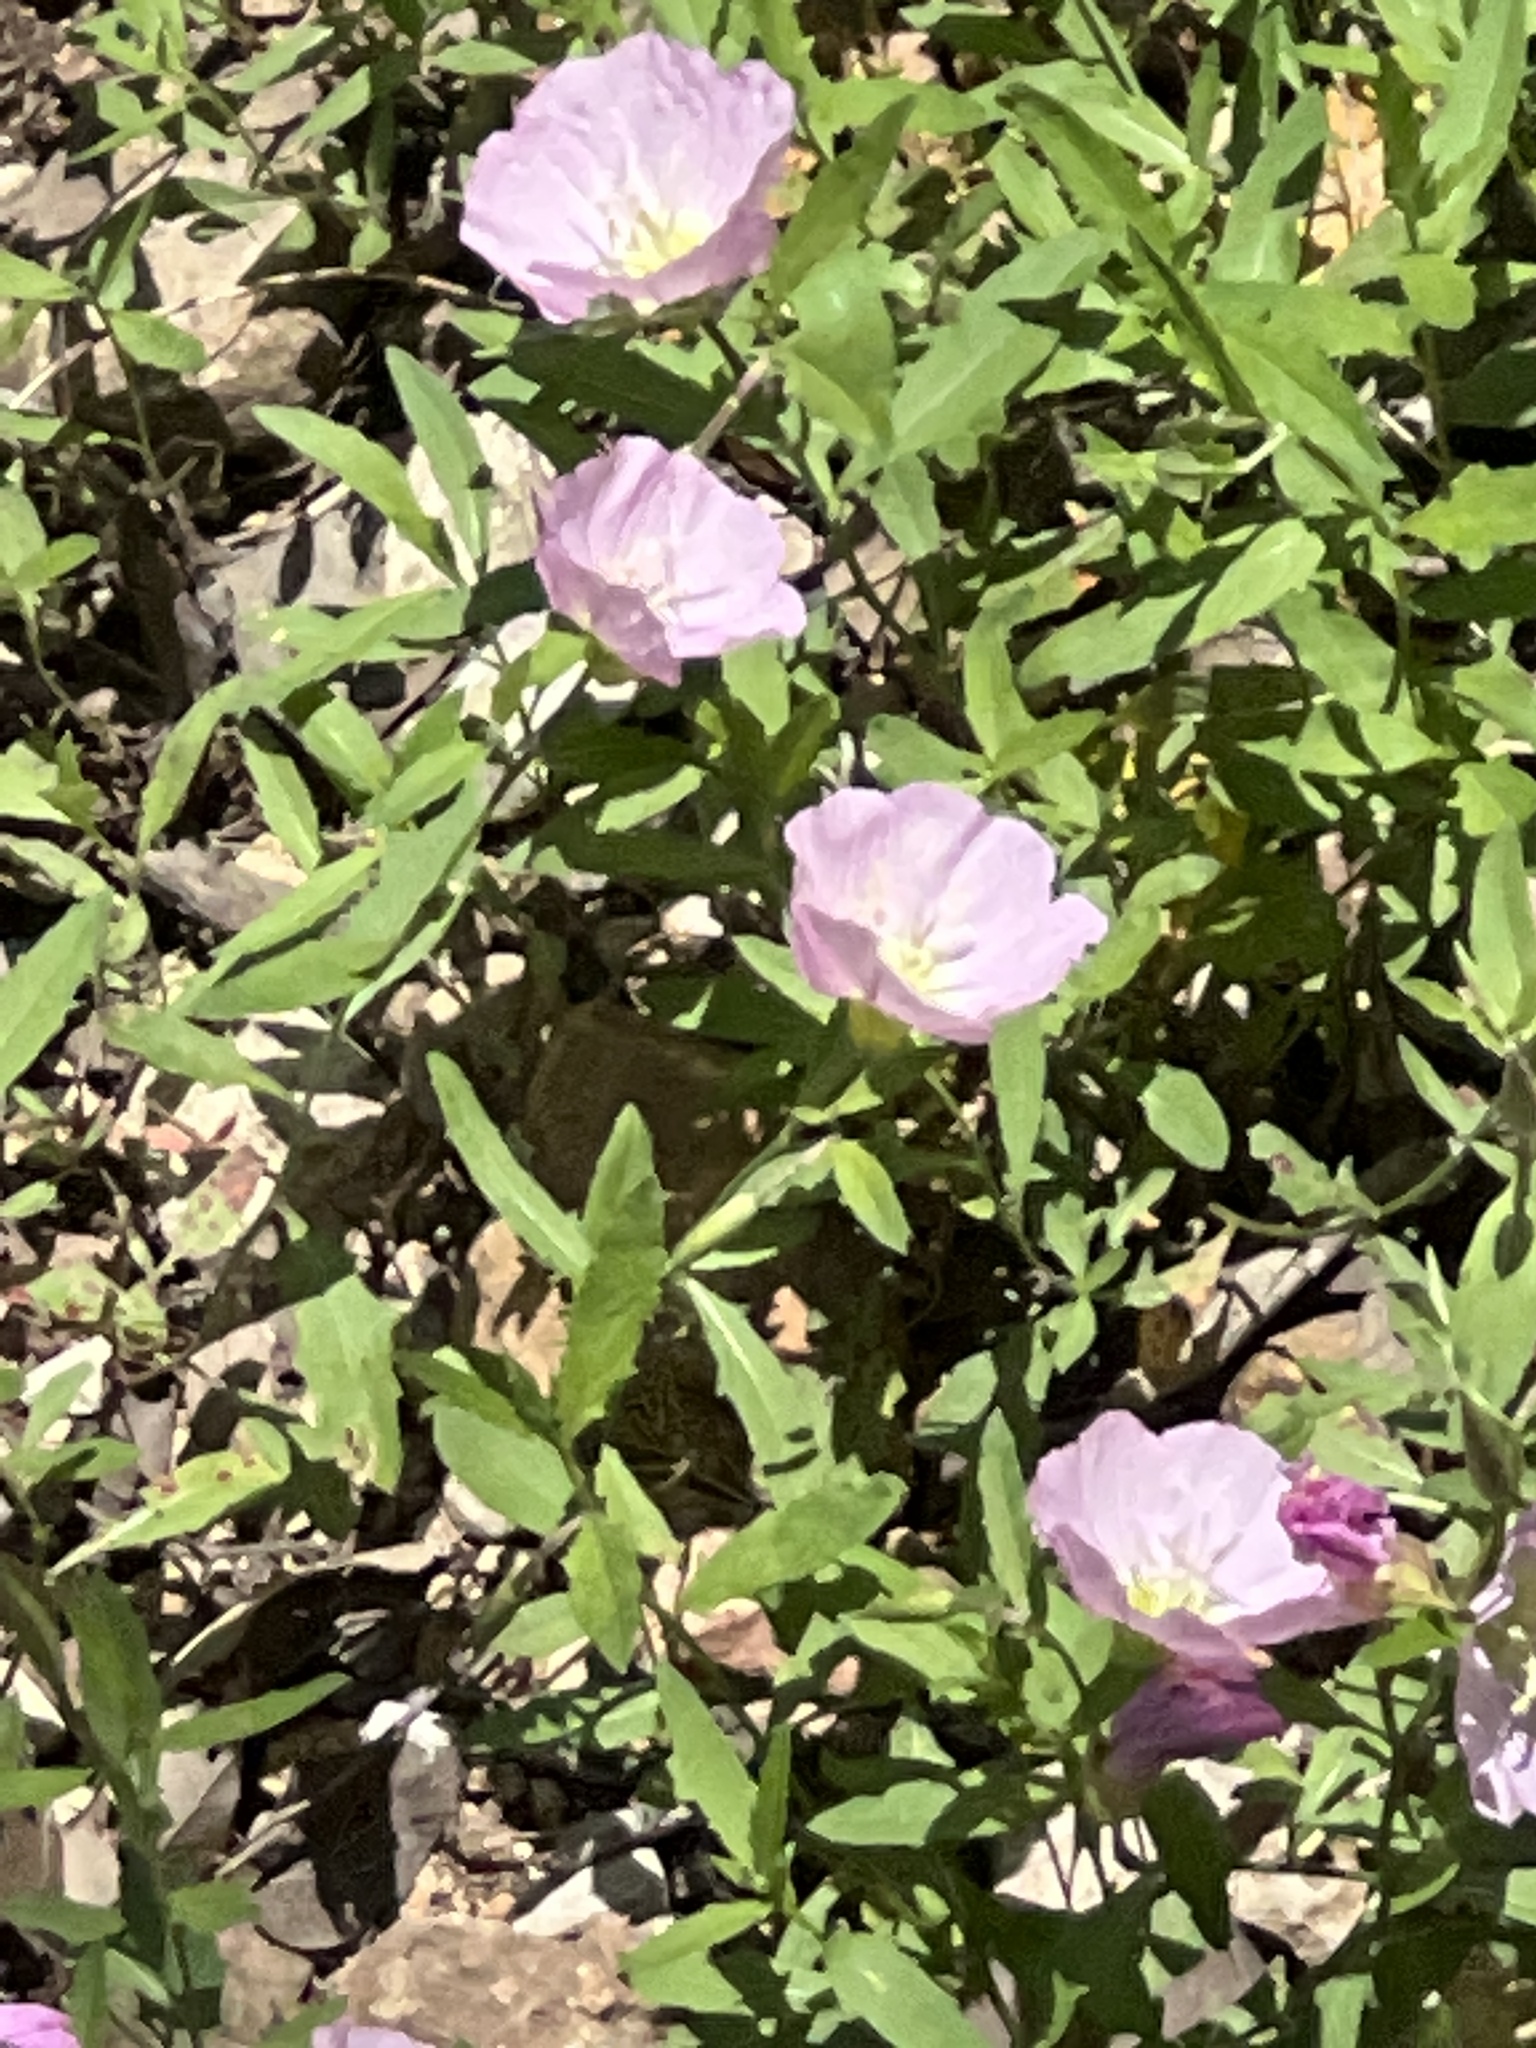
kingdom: Plantae
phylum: Tracheophyta
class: Magnoliopsida
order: Myrtales
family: Onagraceae
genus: Oenothera
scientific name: Oenothera speciosa
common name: White evening-primrose
